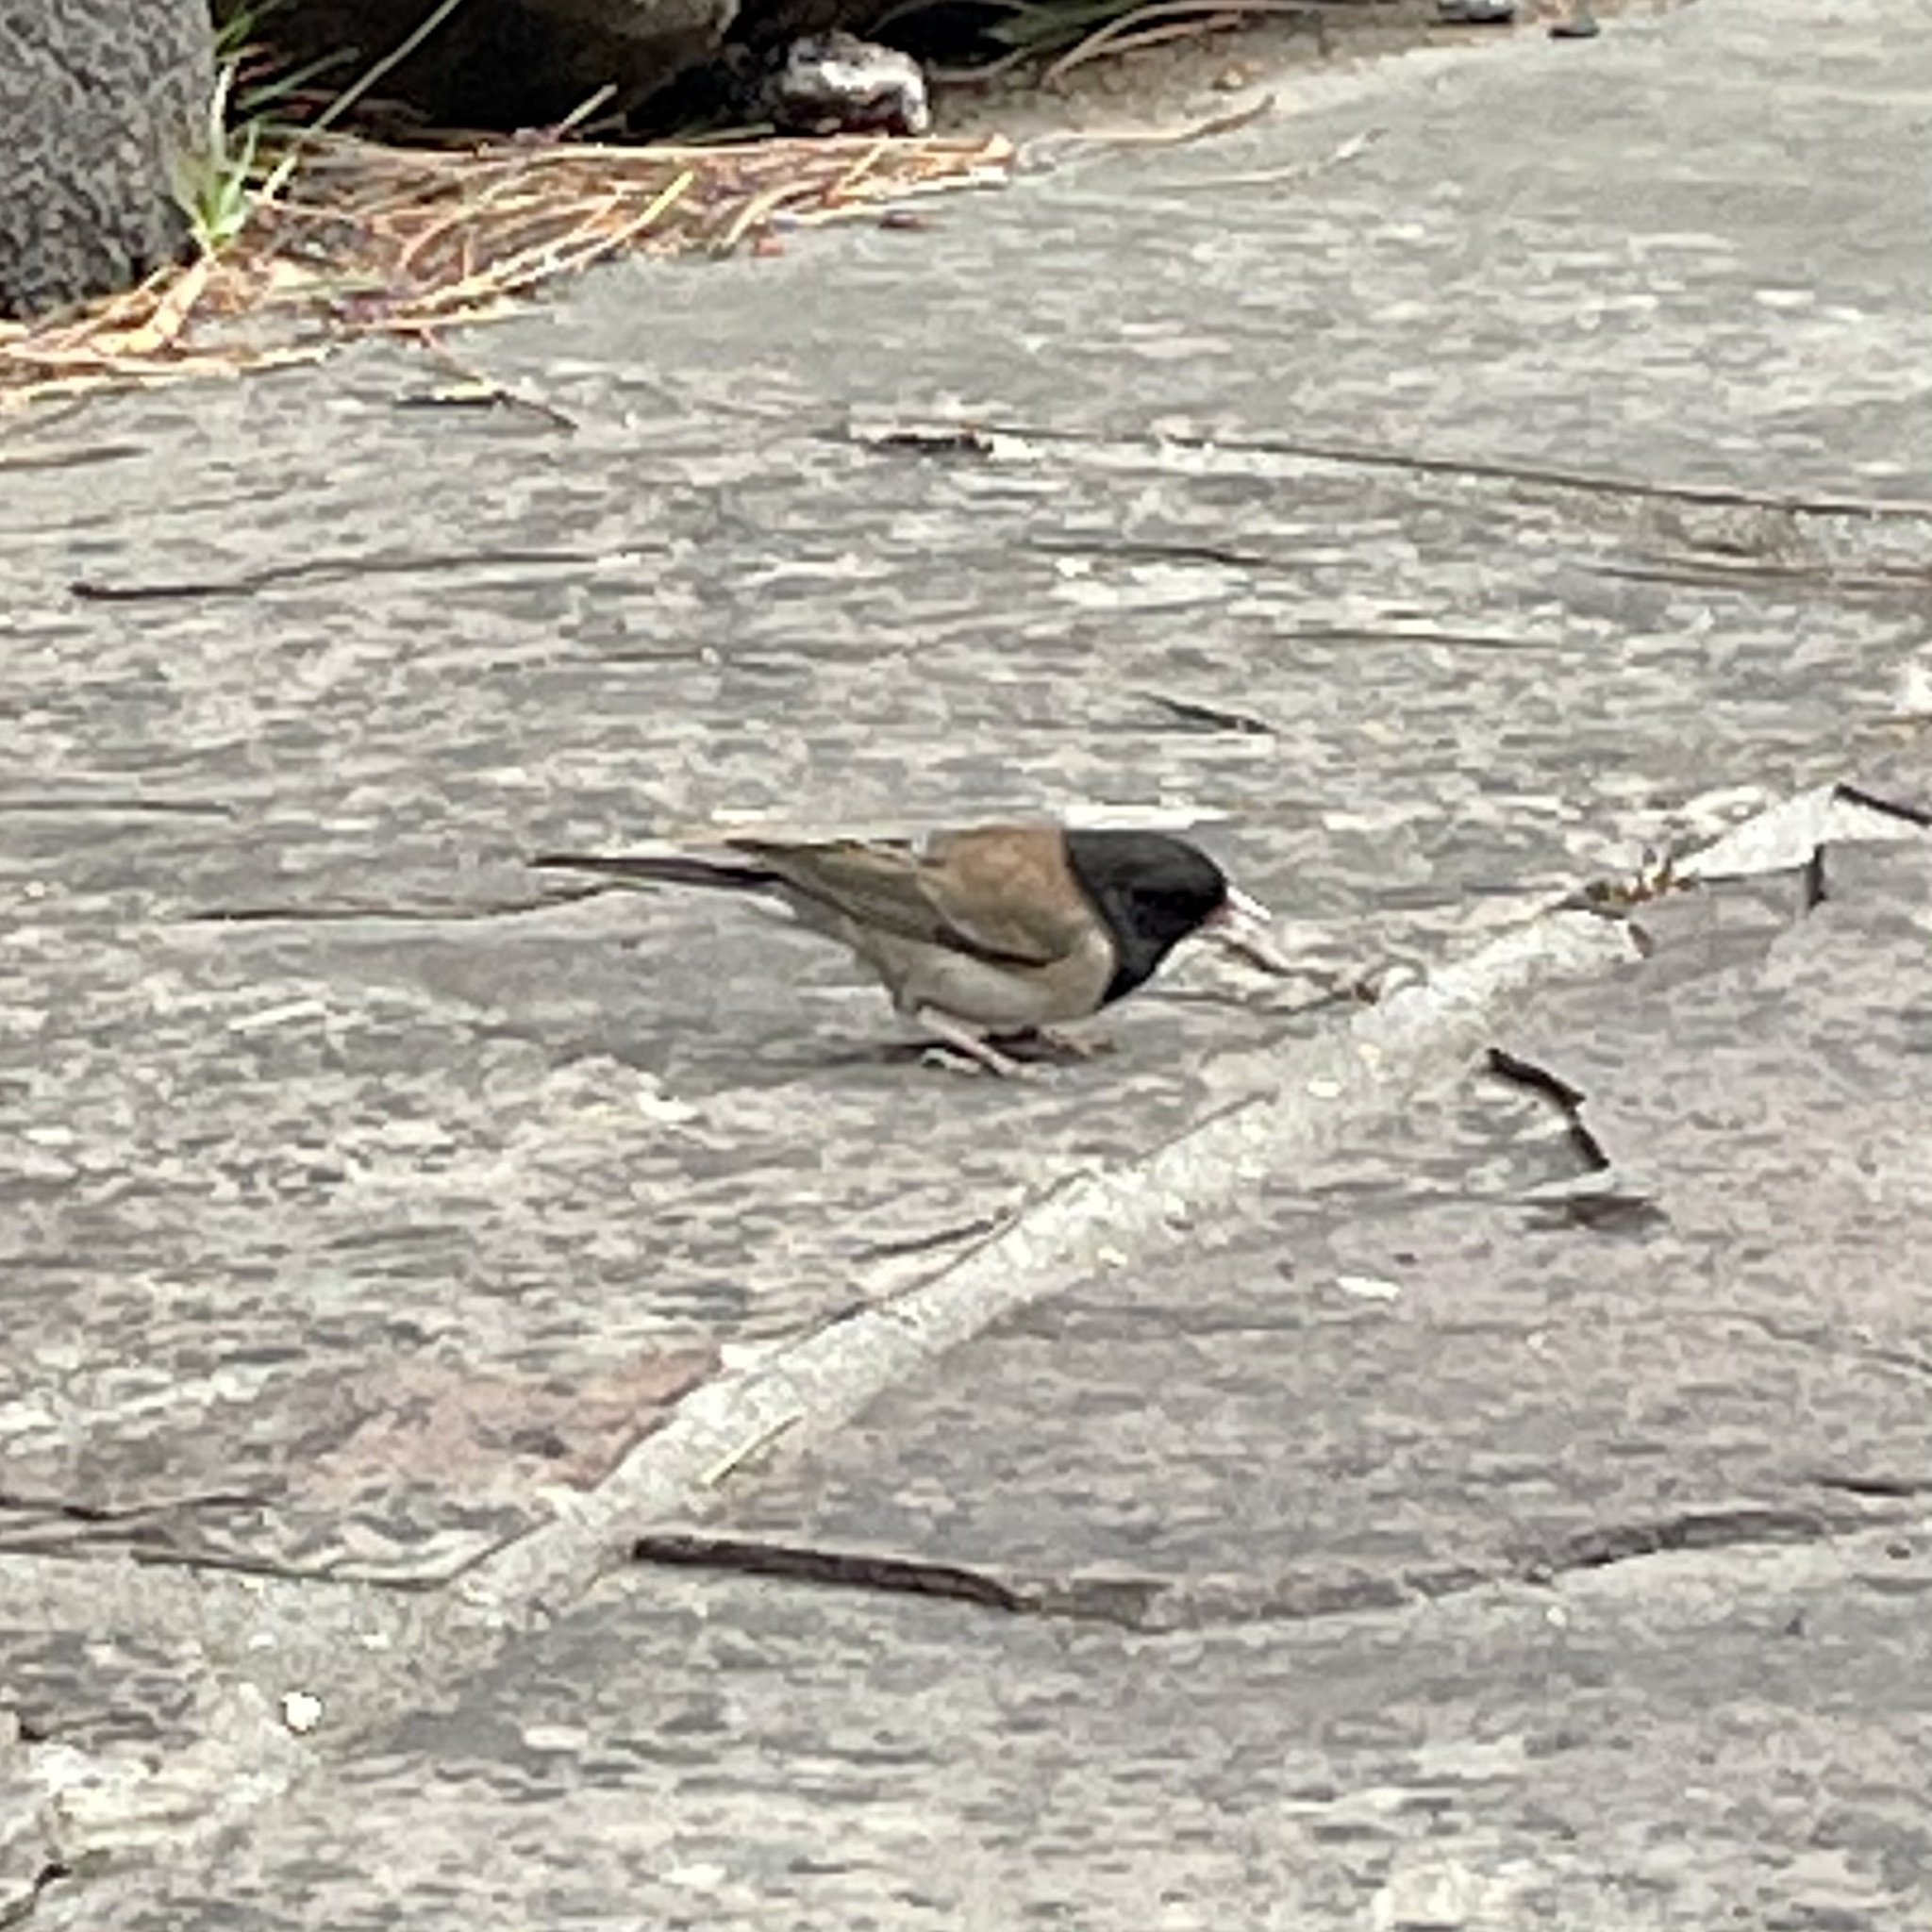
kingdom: Animalia
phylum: Chordata
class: Aves
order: Passeriformes
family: Passerellidae
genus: Junco
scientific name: Junco hyemalis
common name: Dark-eyed junco
